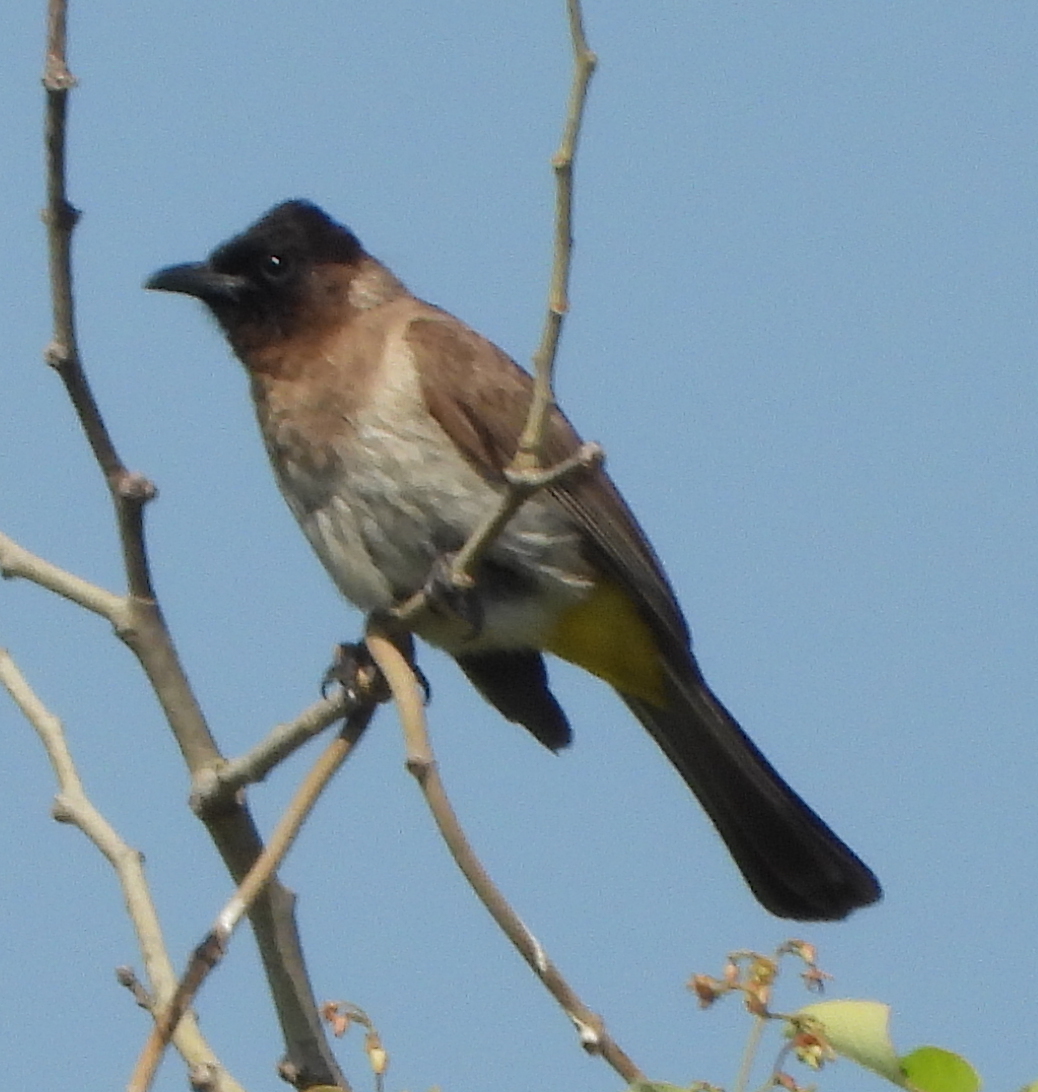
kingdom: Animalia
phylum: Chordata
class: Aves
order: Passeriformes
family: Pycnonotidae
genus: Pycnonotus
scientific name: Pycnonotus barbatus
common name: Common bulbul
